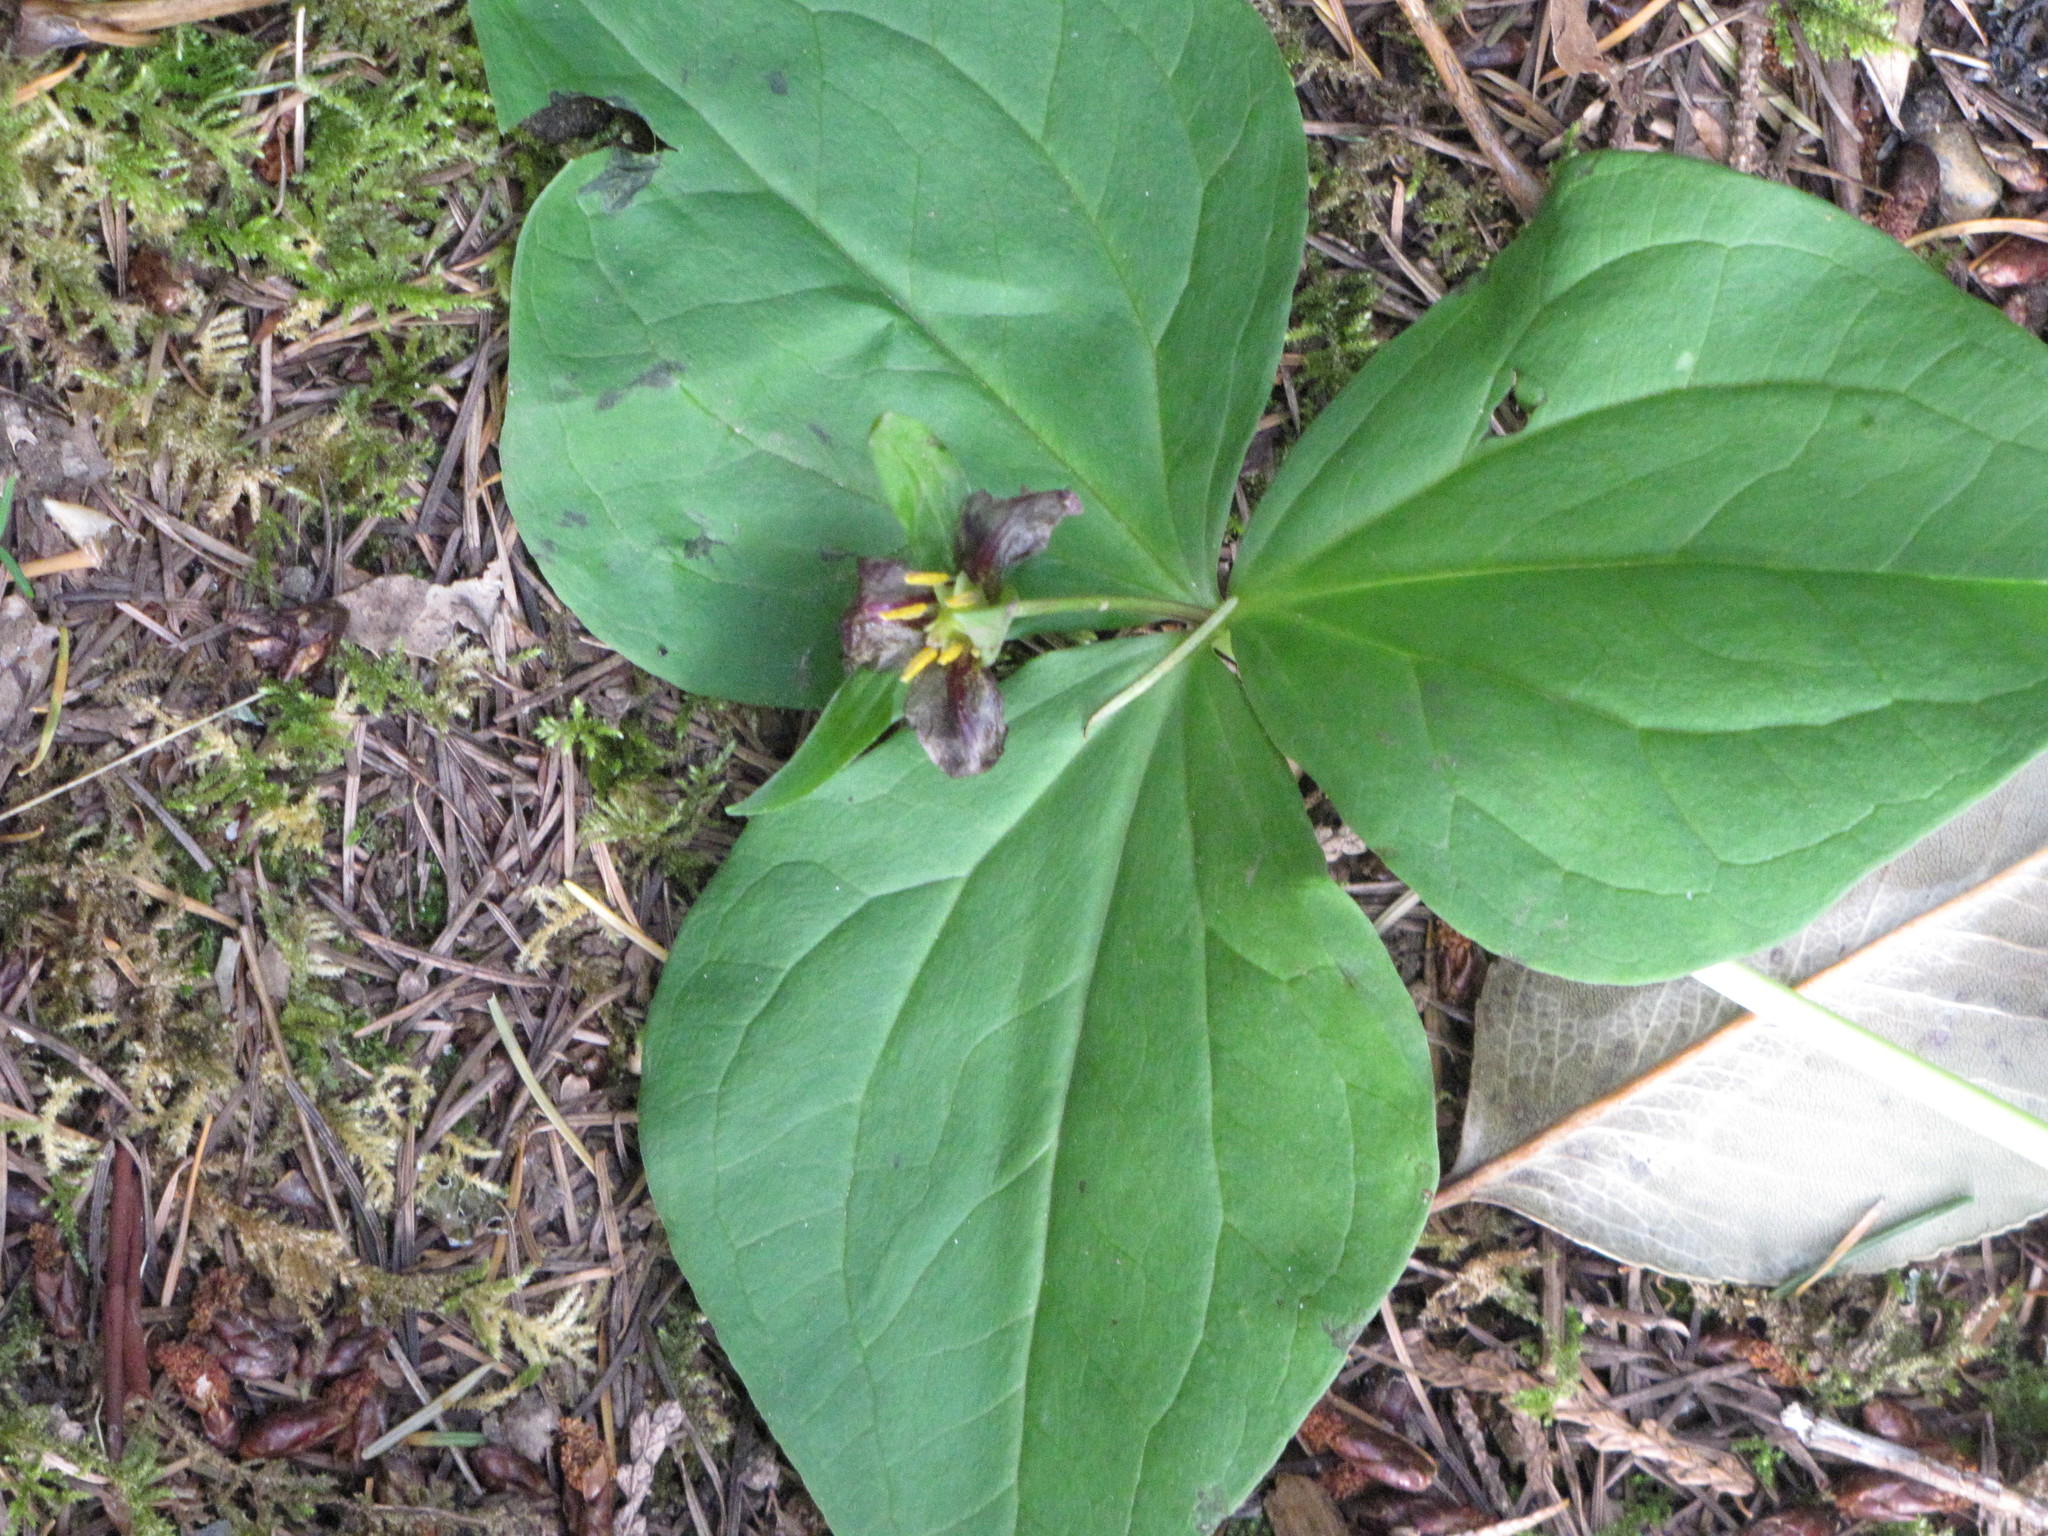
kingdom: Plantae
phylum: Tracheophyta
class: Liliopsida
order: Liliales
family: Melanthiaceae
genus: Trillium
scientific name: Trillium ovatum
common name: Pacific trillium
